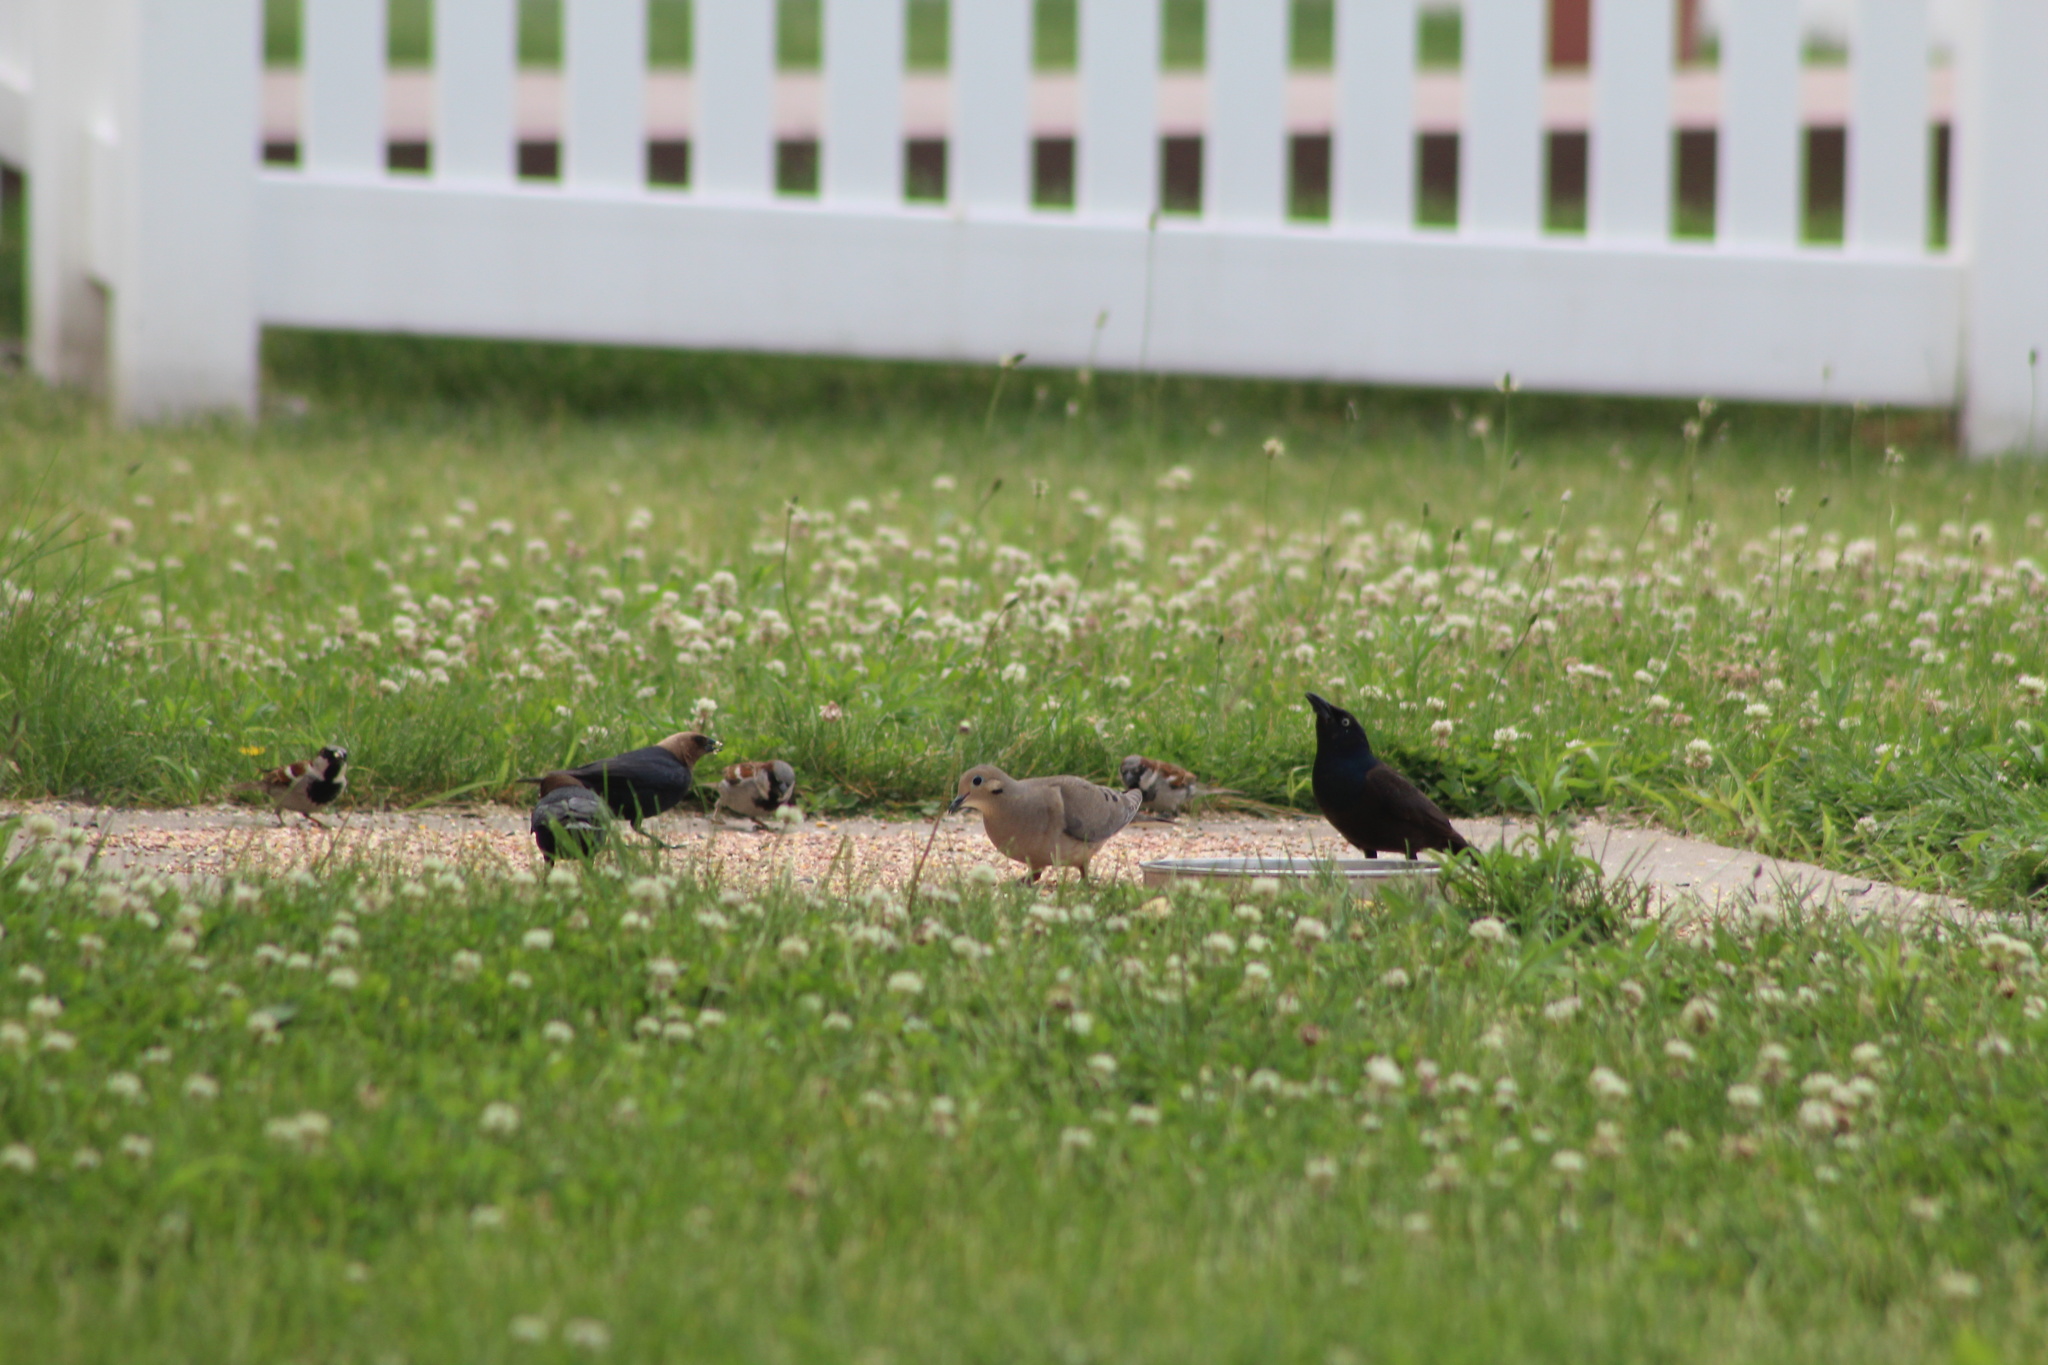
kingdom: Animalia
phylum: Chordata
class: Aves
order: Passeriformes
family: Icteridae
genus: Quiscalus
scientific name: Quiscalus quiscula
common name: Common grackle
